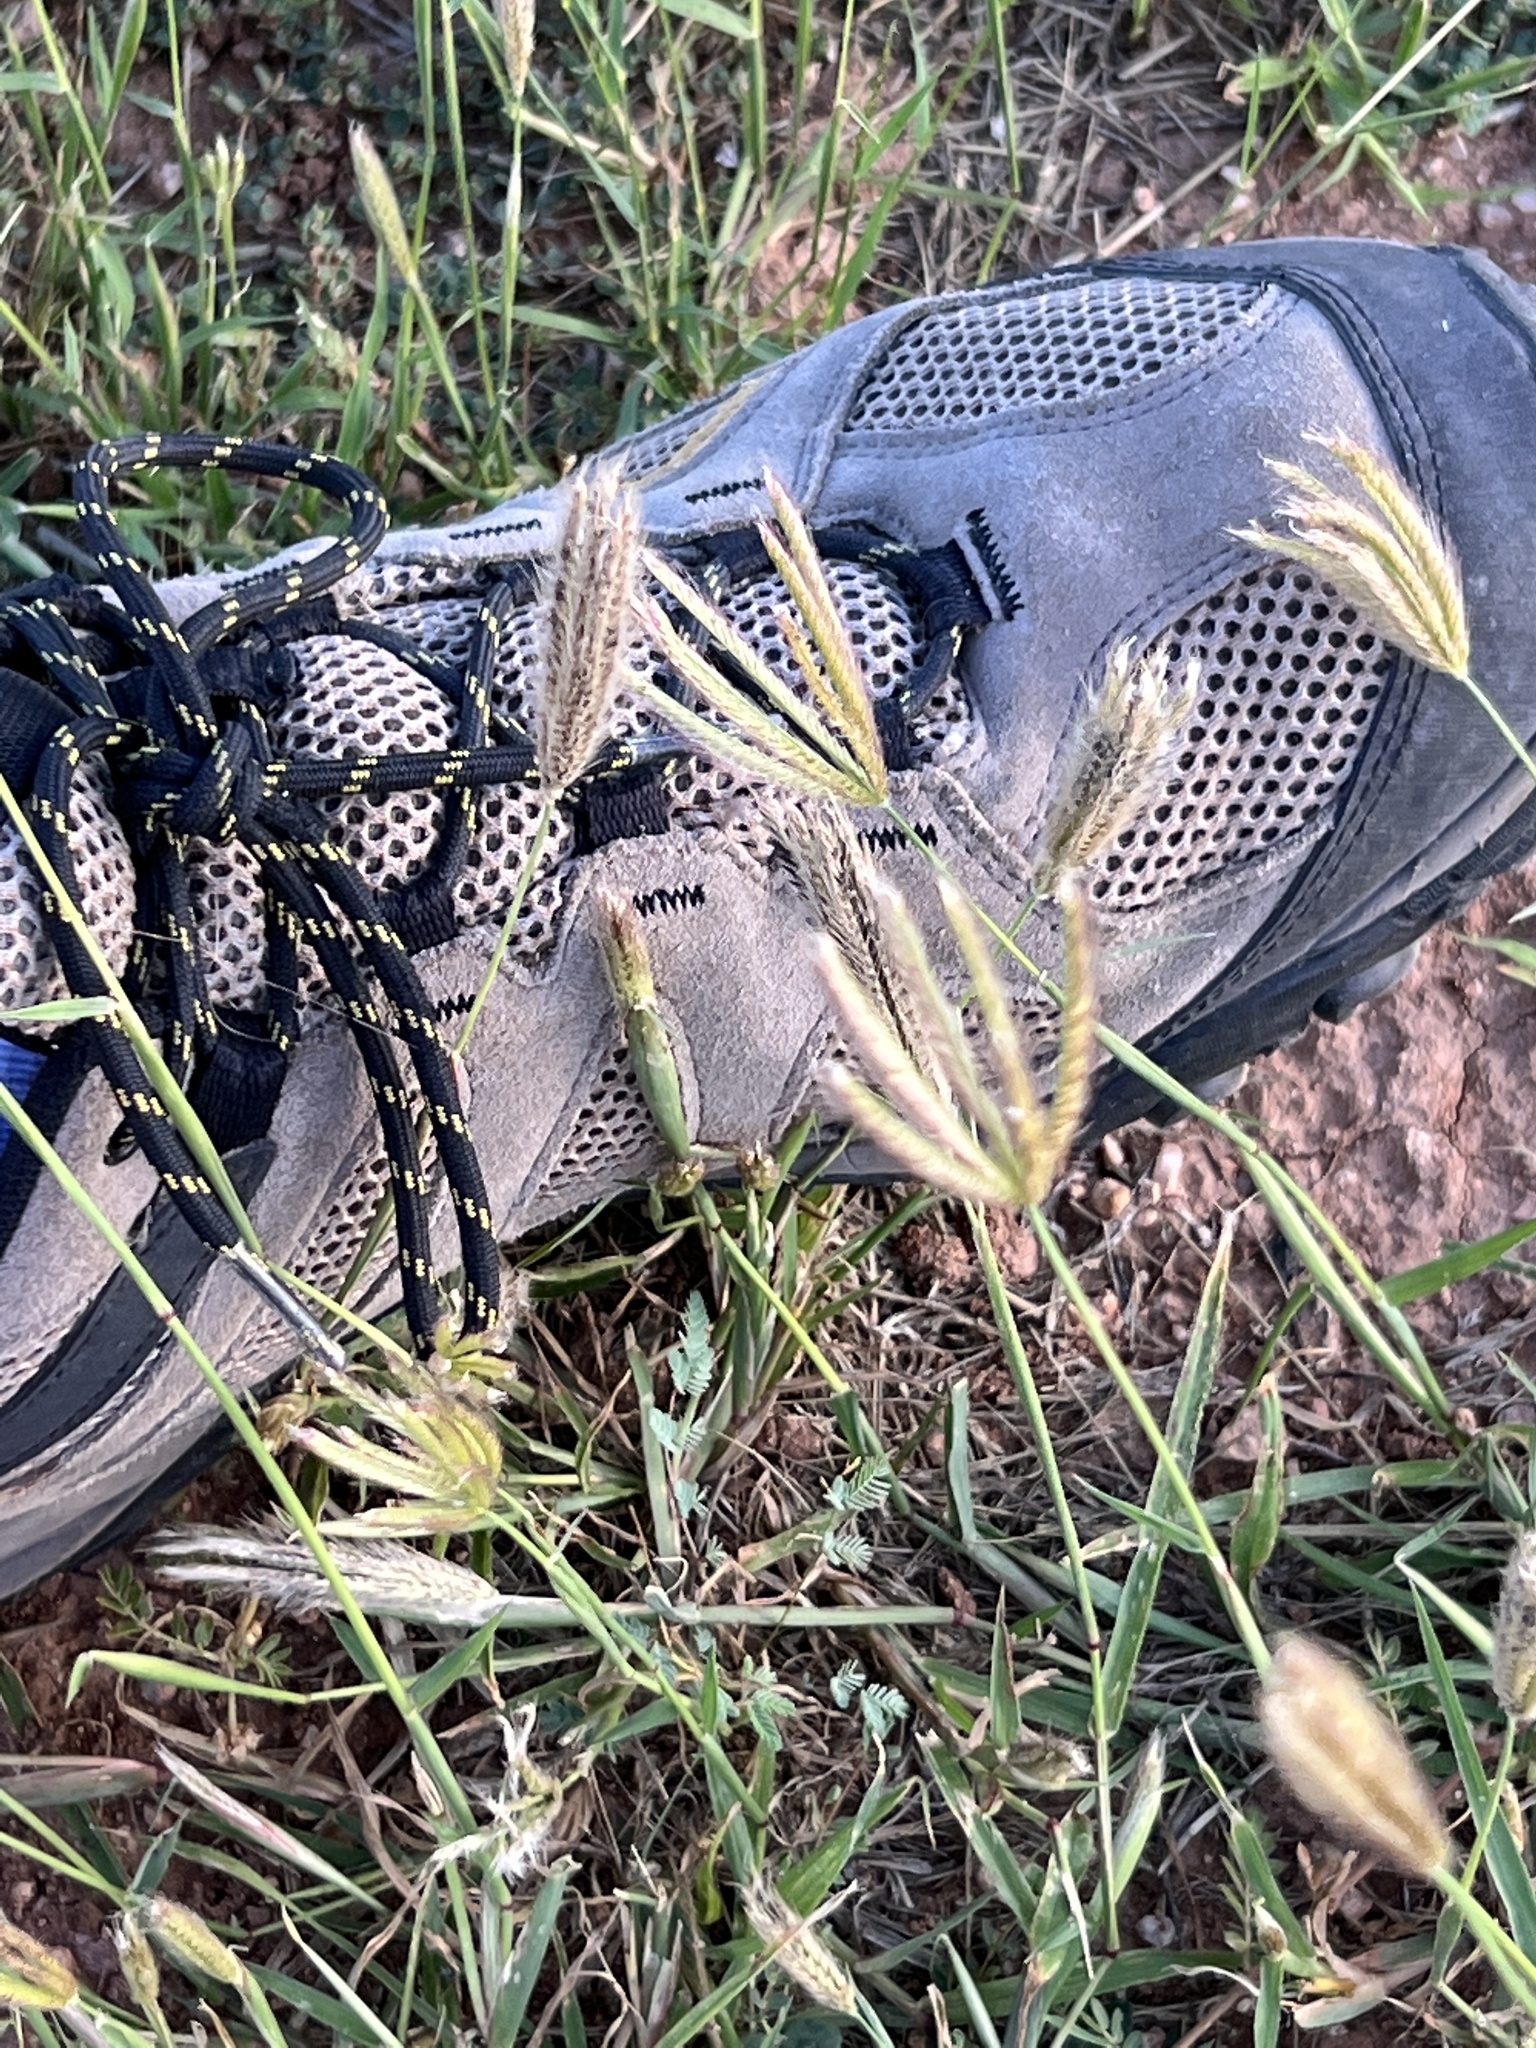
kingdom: Plantae
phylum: Tracheophyta
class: Liliopsida
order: Poales
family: Poaceae
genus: Chloris
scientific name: Chloris virgata
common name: Feathery rhodes-grass
